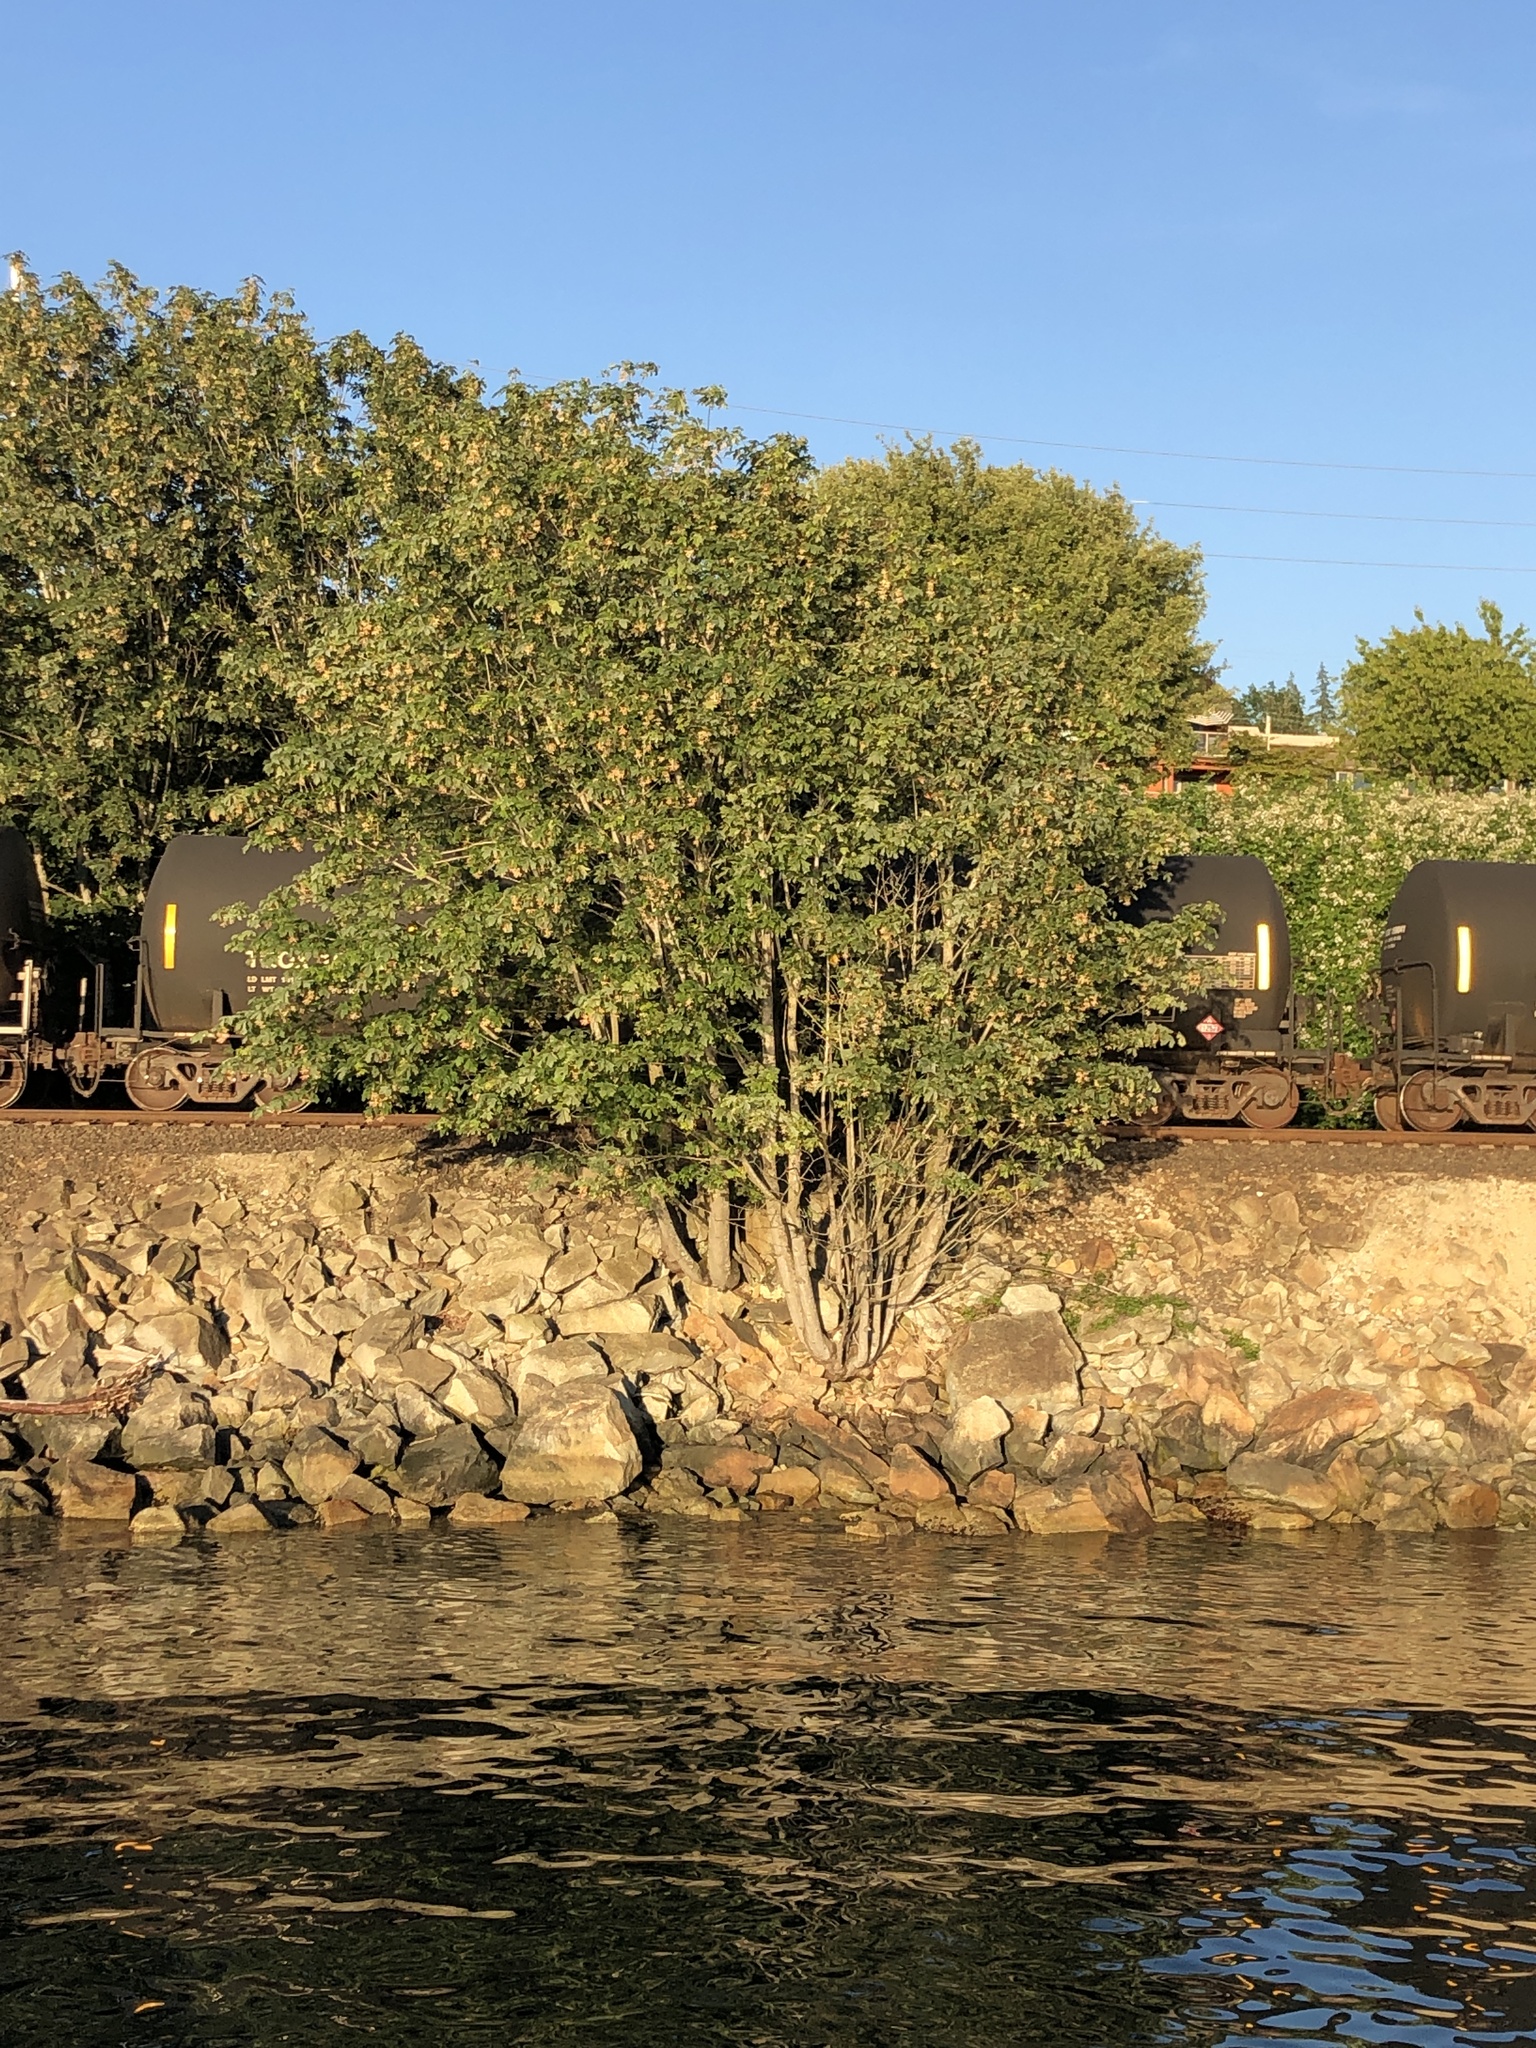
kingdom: Plantae
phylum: Tracheophyta
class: Magnoliopsida
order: Sapindales
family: Sapindaceae
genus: Acer
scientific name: Acer macrophyllum
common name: Oregon maple
